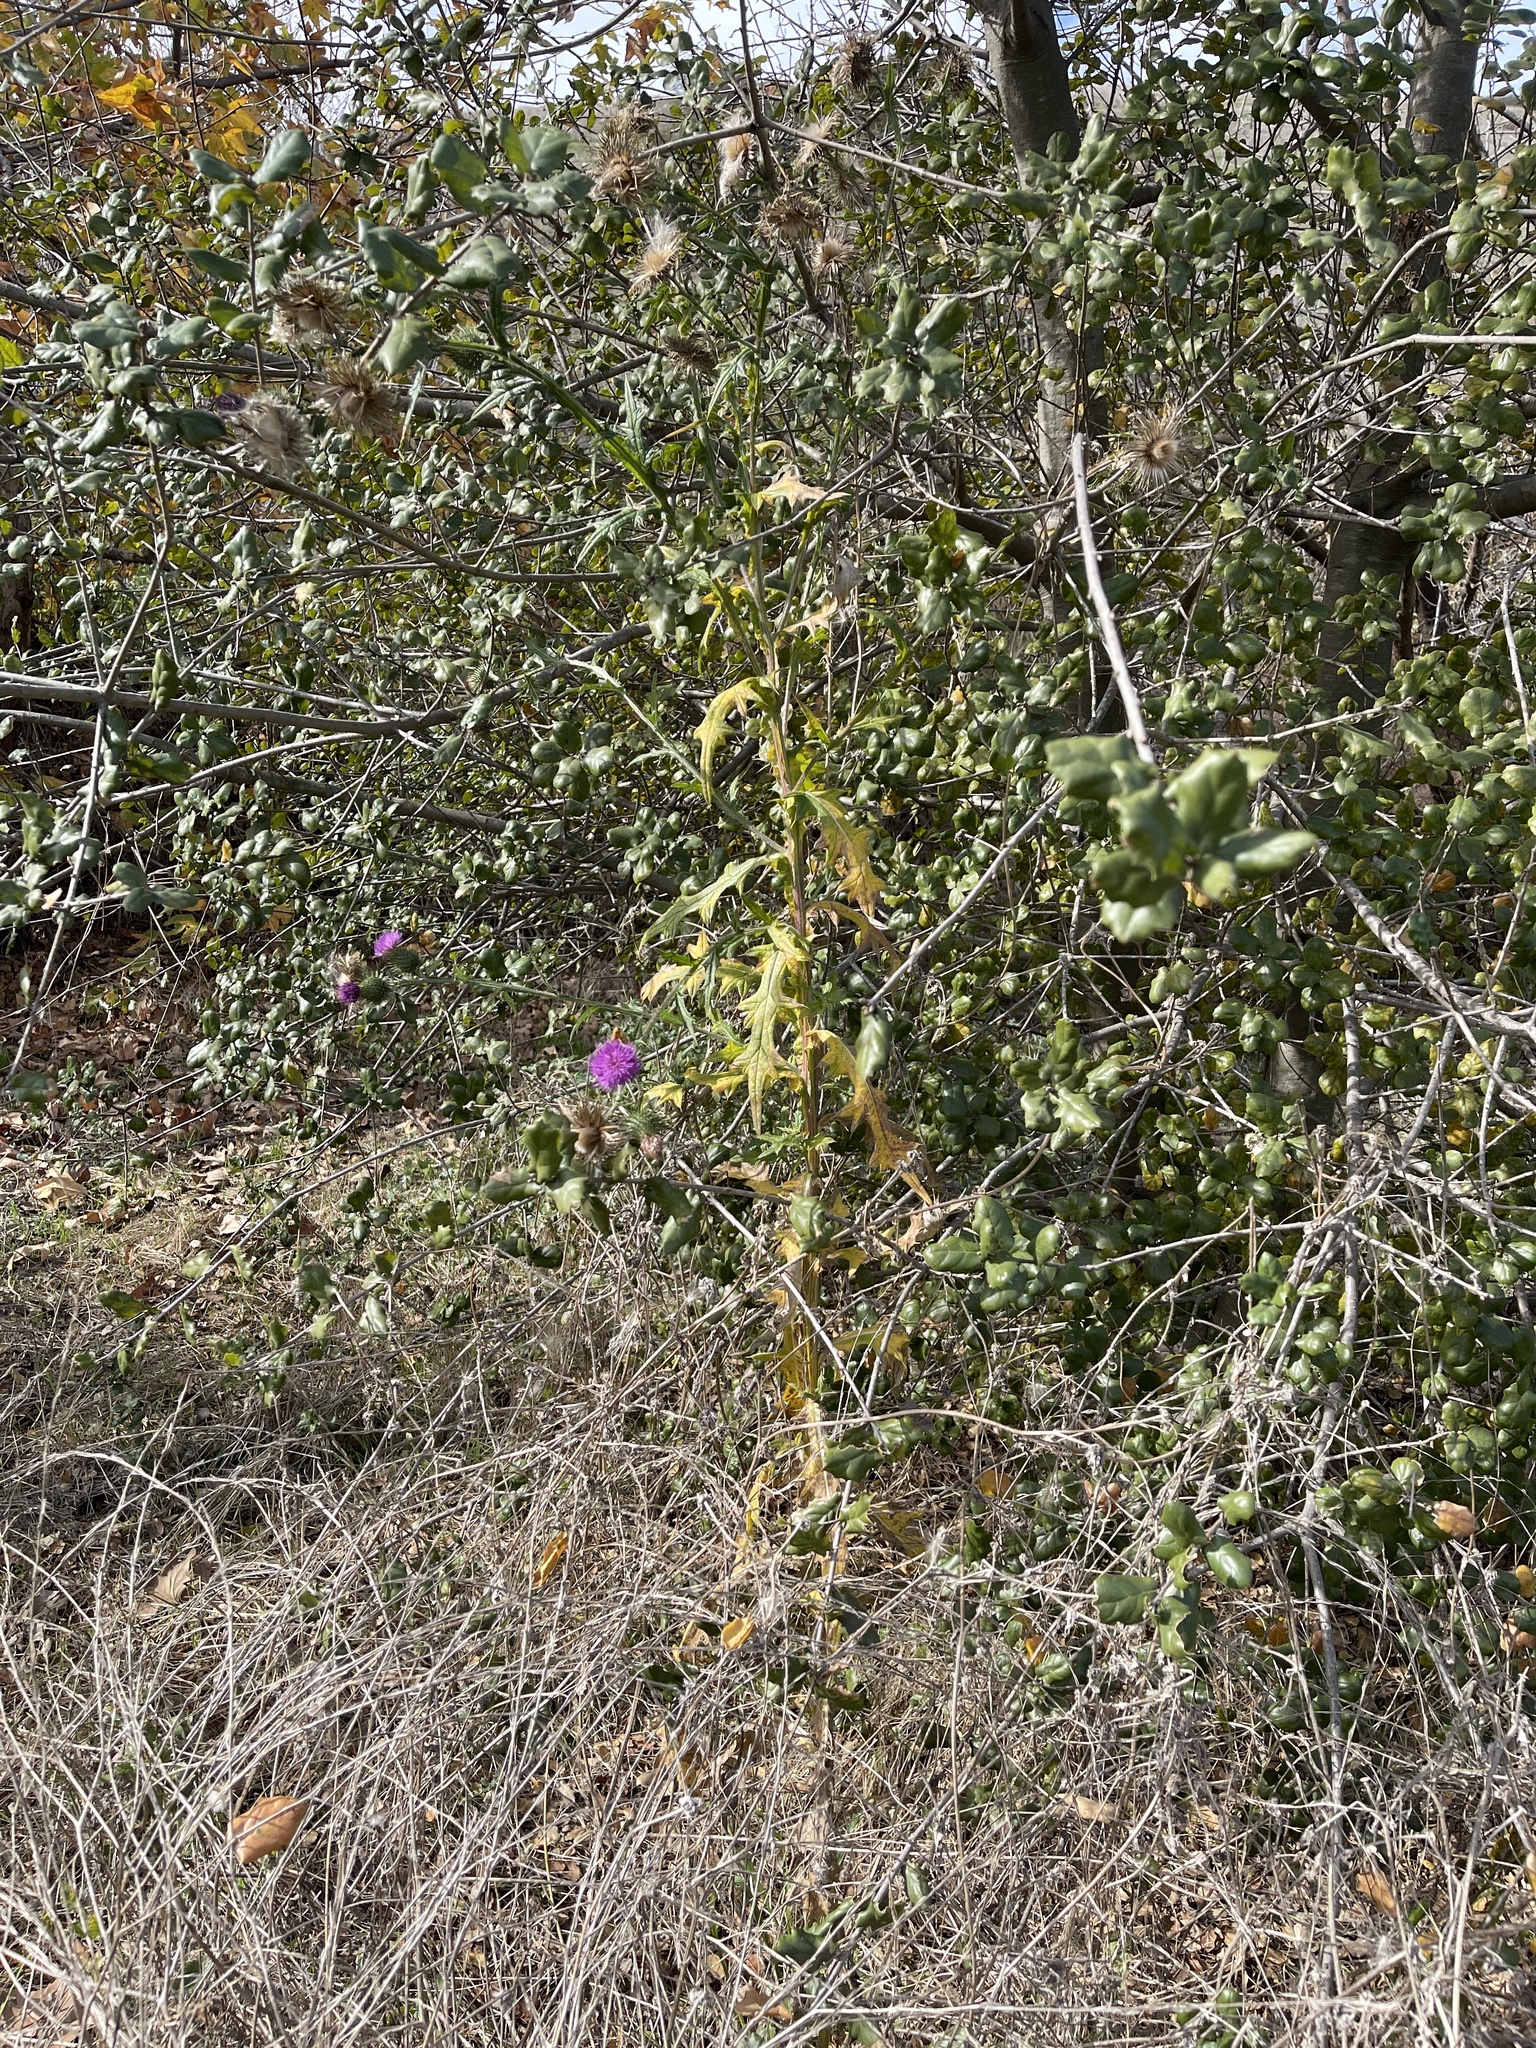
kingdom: Plantae
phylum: Tracheophyta
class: Magnoliopsida
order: Asterales
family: Asteraceae
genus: Cirsium
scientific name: Cirsium vulgare
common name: Bull thistle
